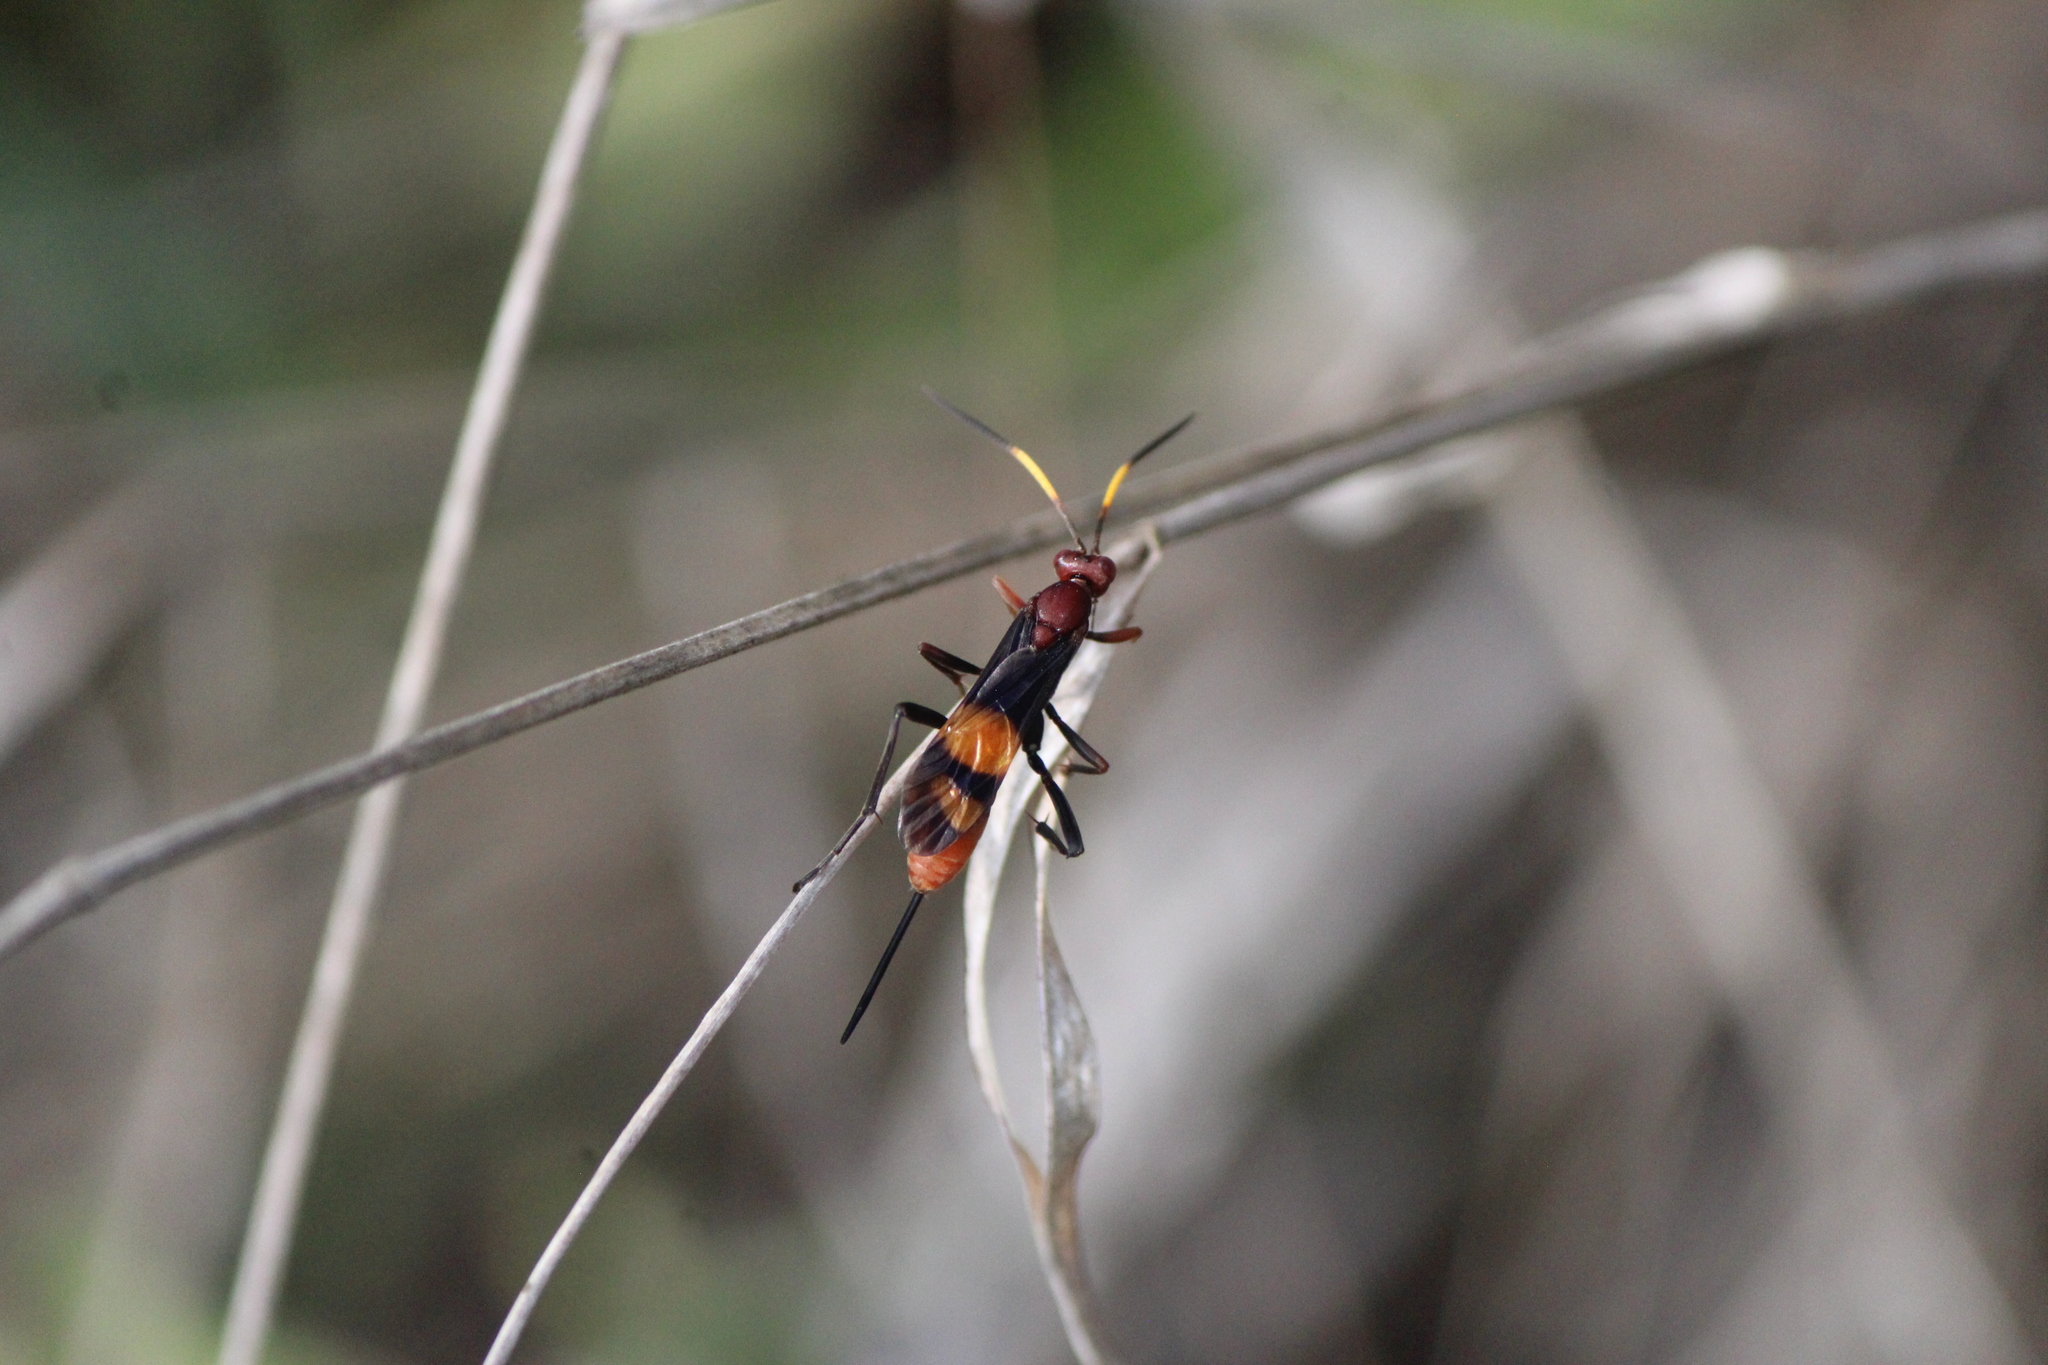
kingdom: Animalia
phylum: Arthropoda
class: Insecta
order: Hymenoptera
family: Ichneumonidae
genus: Compsocryptus
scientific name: Compsocryptus xanthostigma
